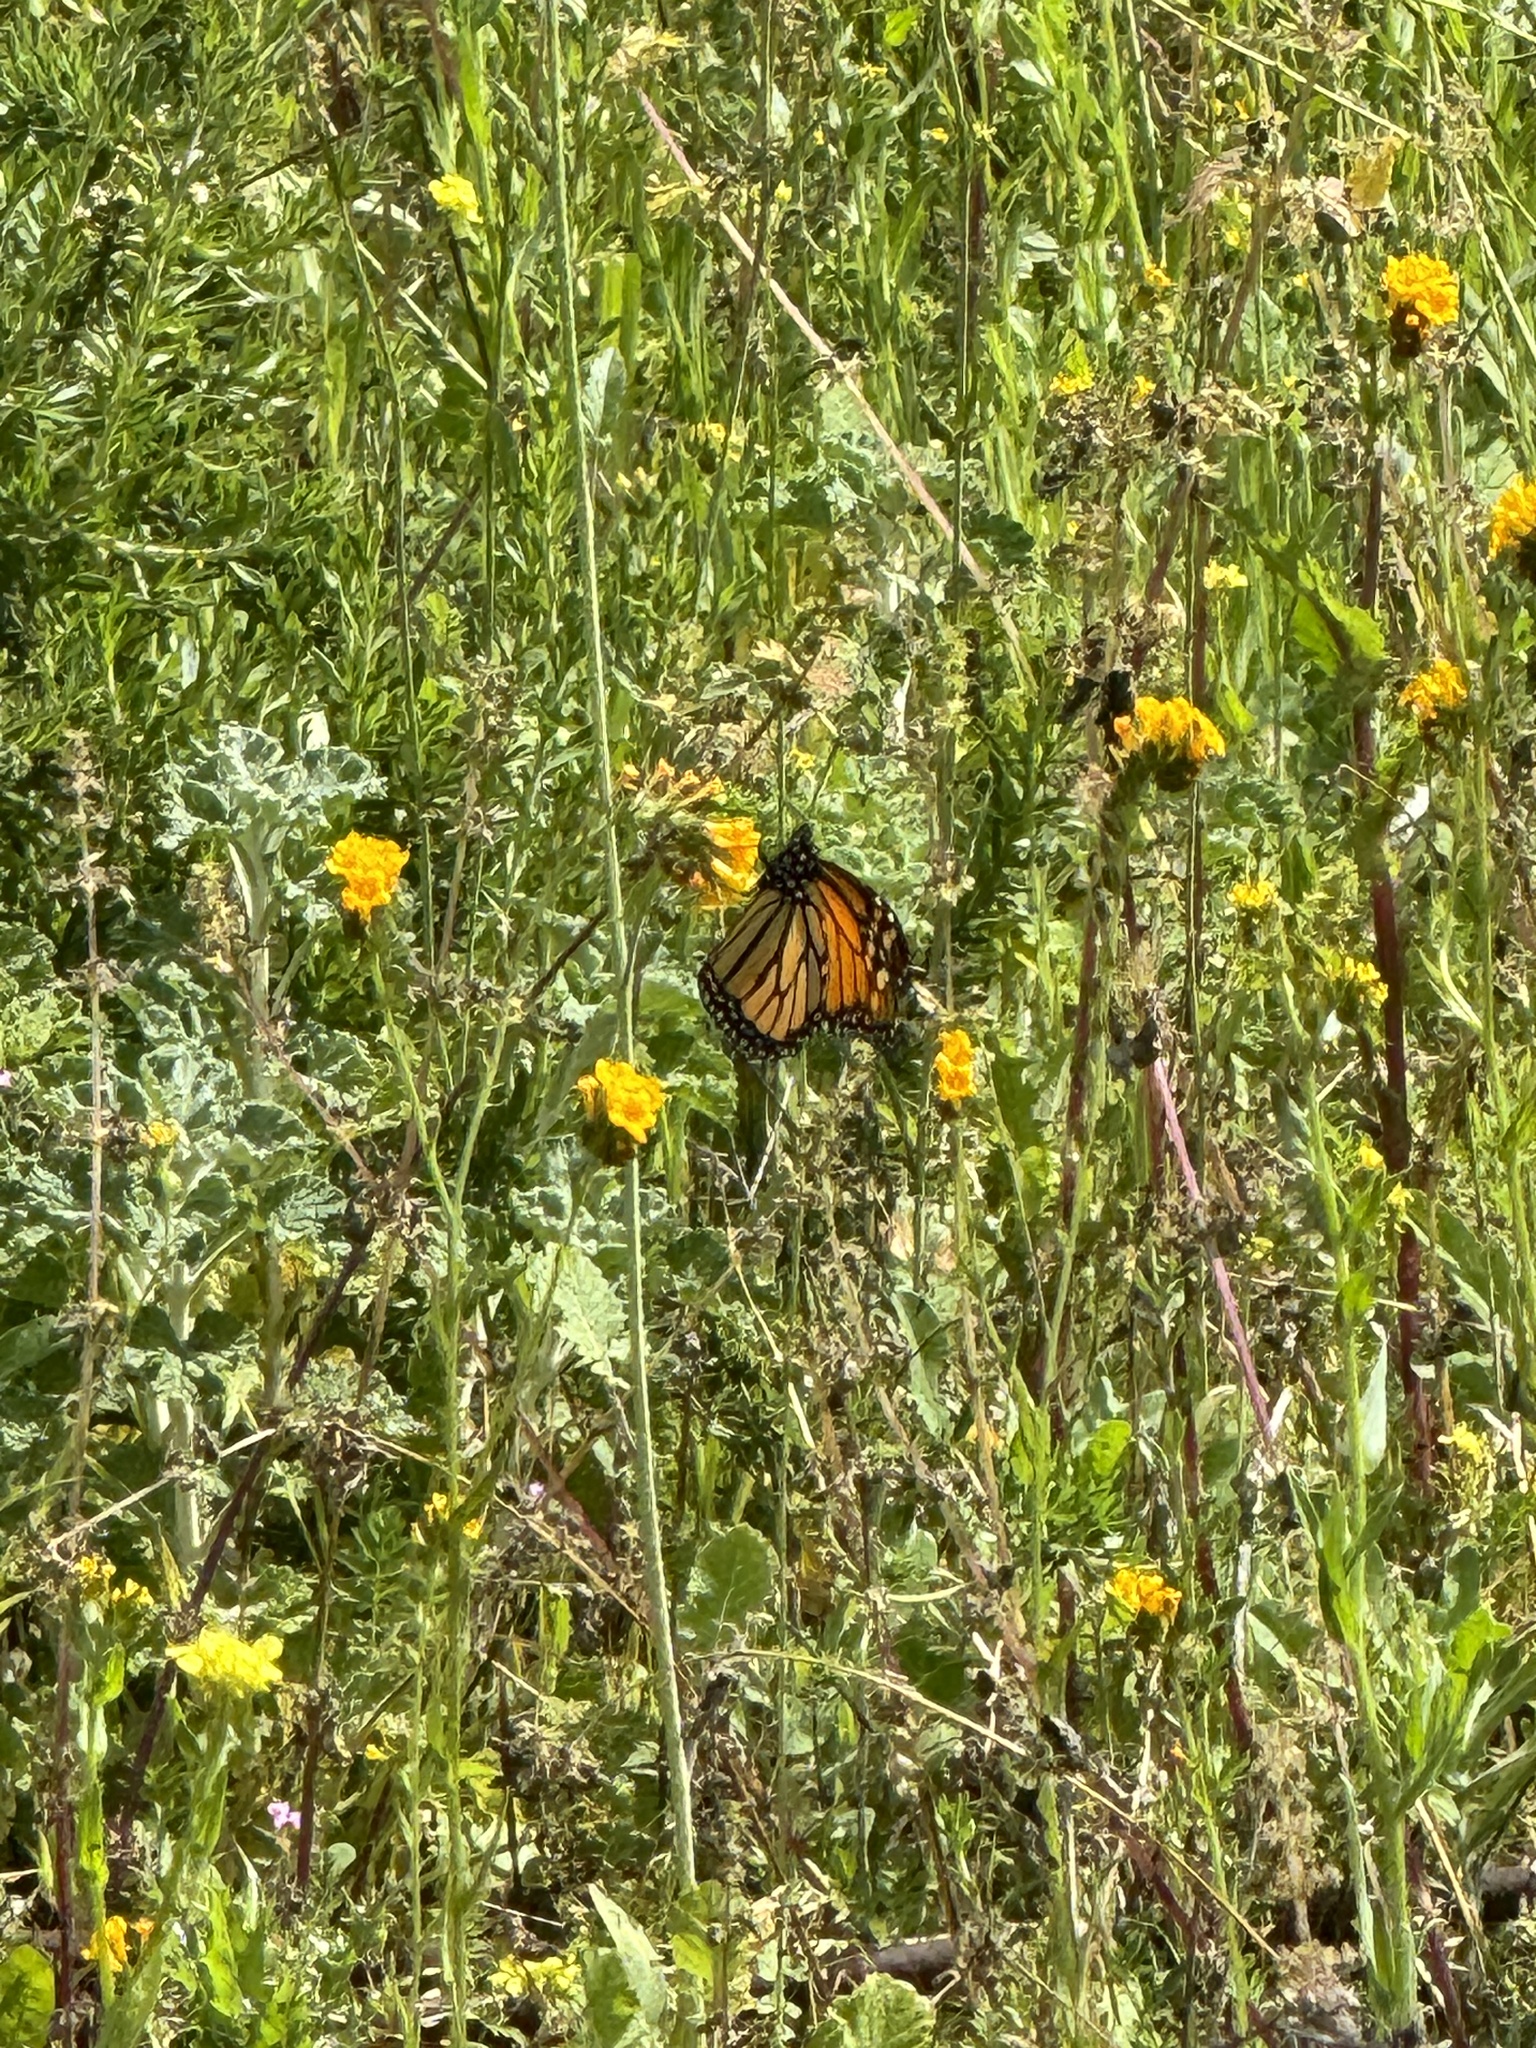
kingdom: Animalia
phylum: Arthropoda
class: Insecta
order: Lepidoptera
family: Nymphalidae
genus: Danaus
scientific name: Danaus plexippus
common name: Monarch
